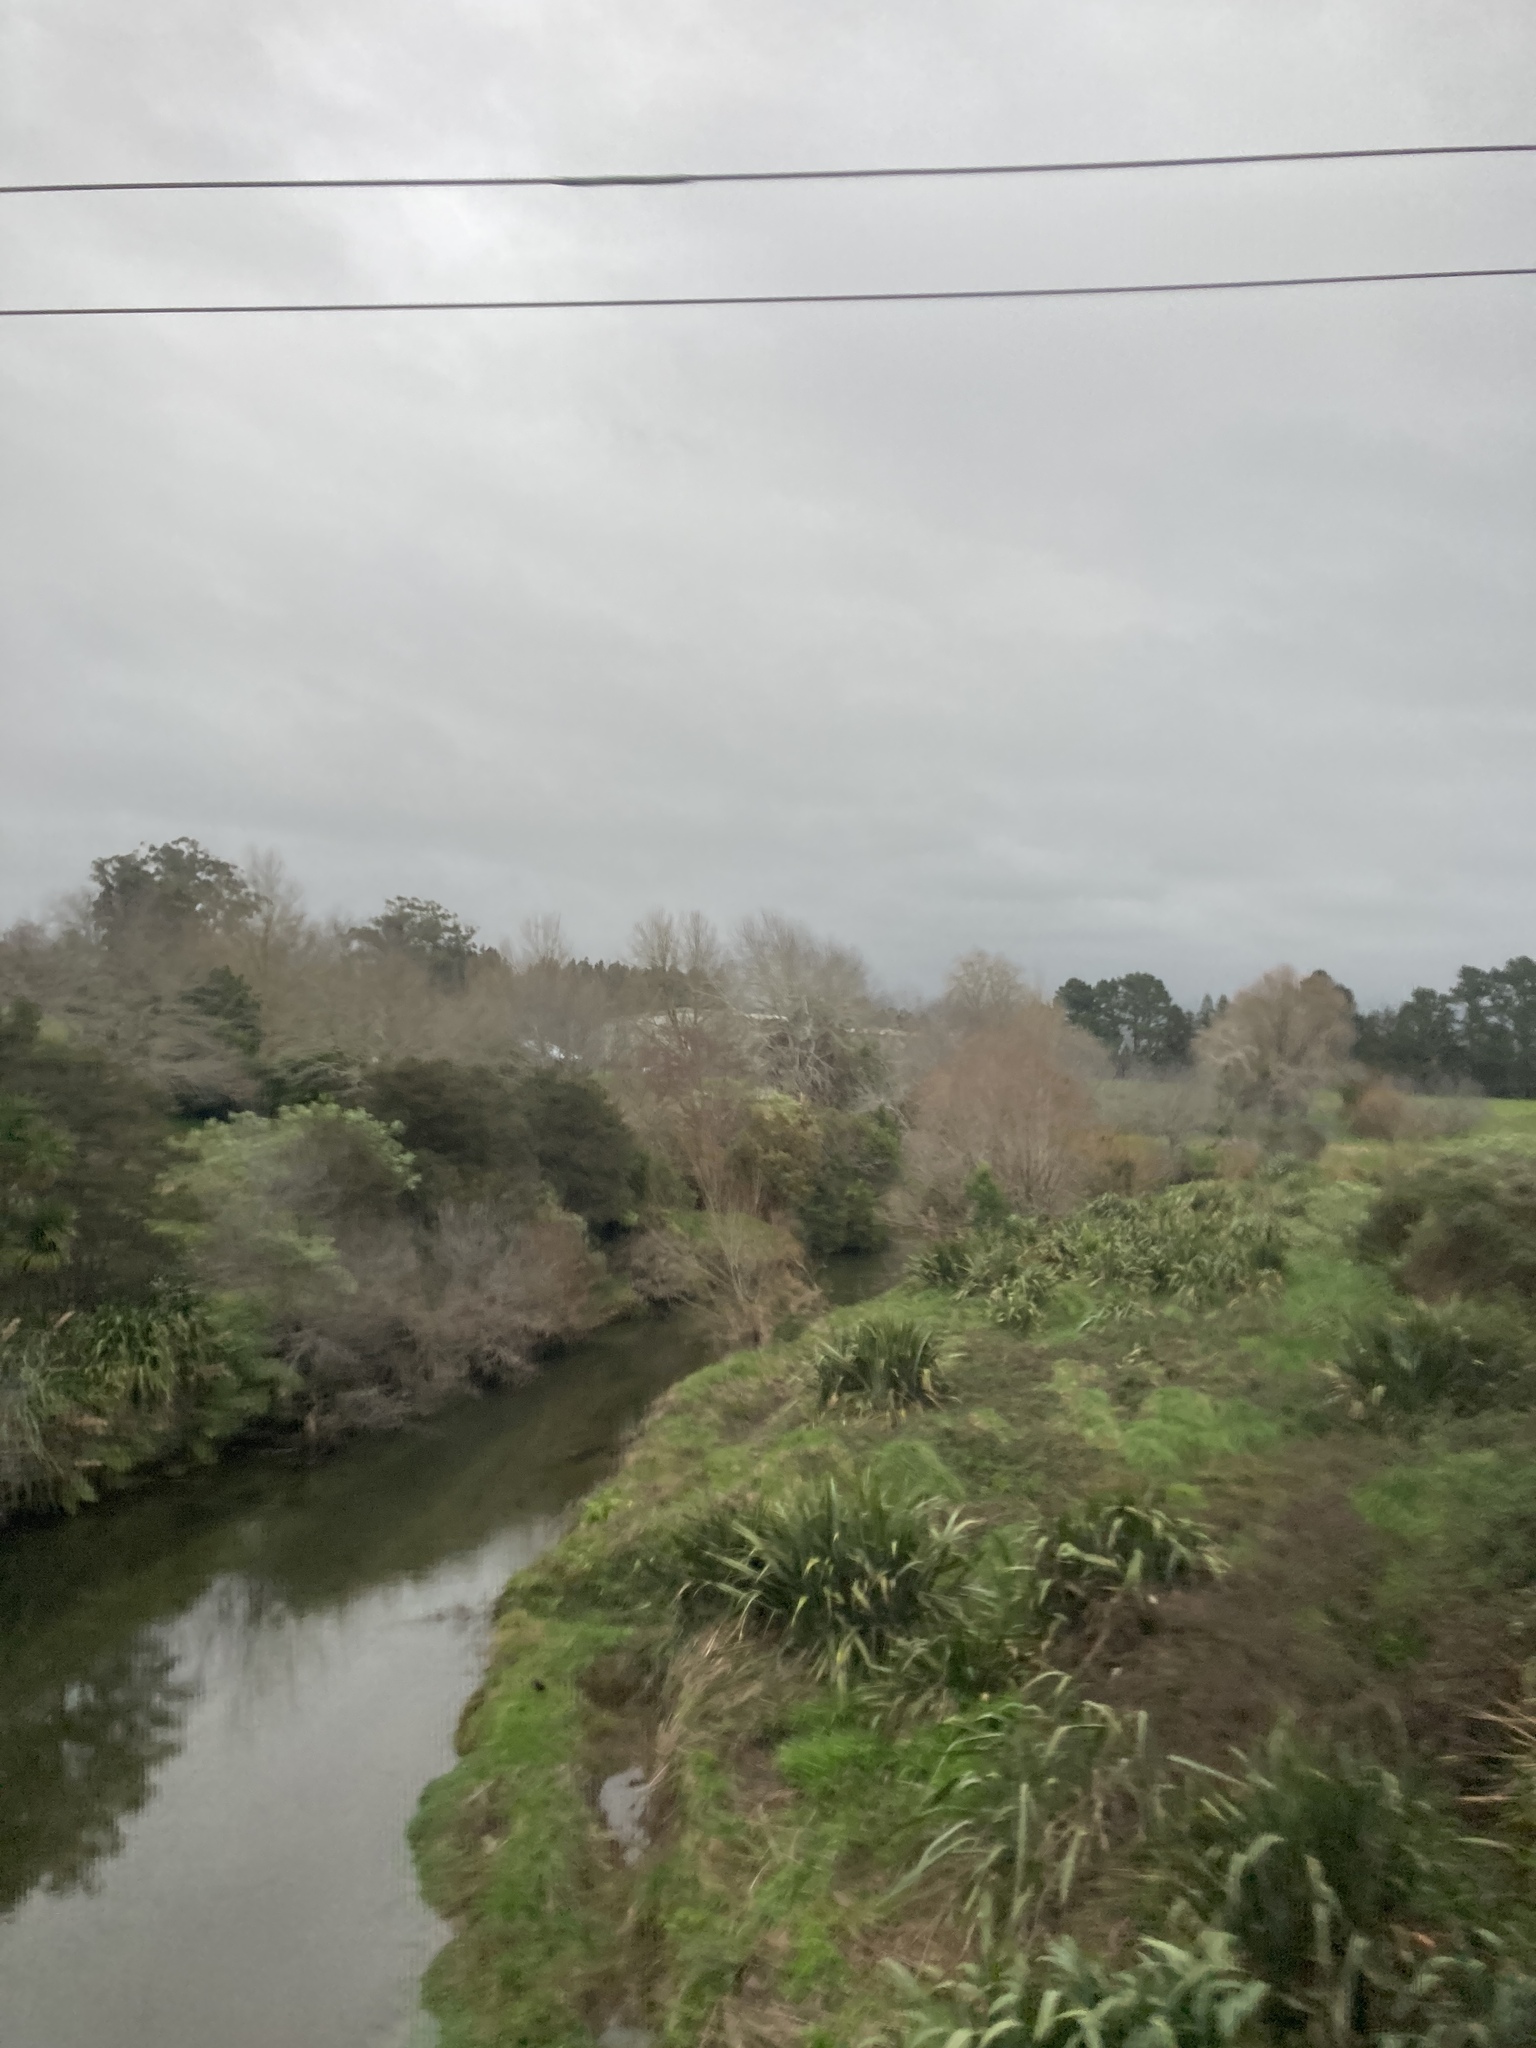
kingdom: Plantae
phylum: Tracheophyta
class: Liliopsida
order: Asparagales
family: Asphodelaceae
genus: Phormium
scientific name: Phormium tenax
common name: New zealand flax
